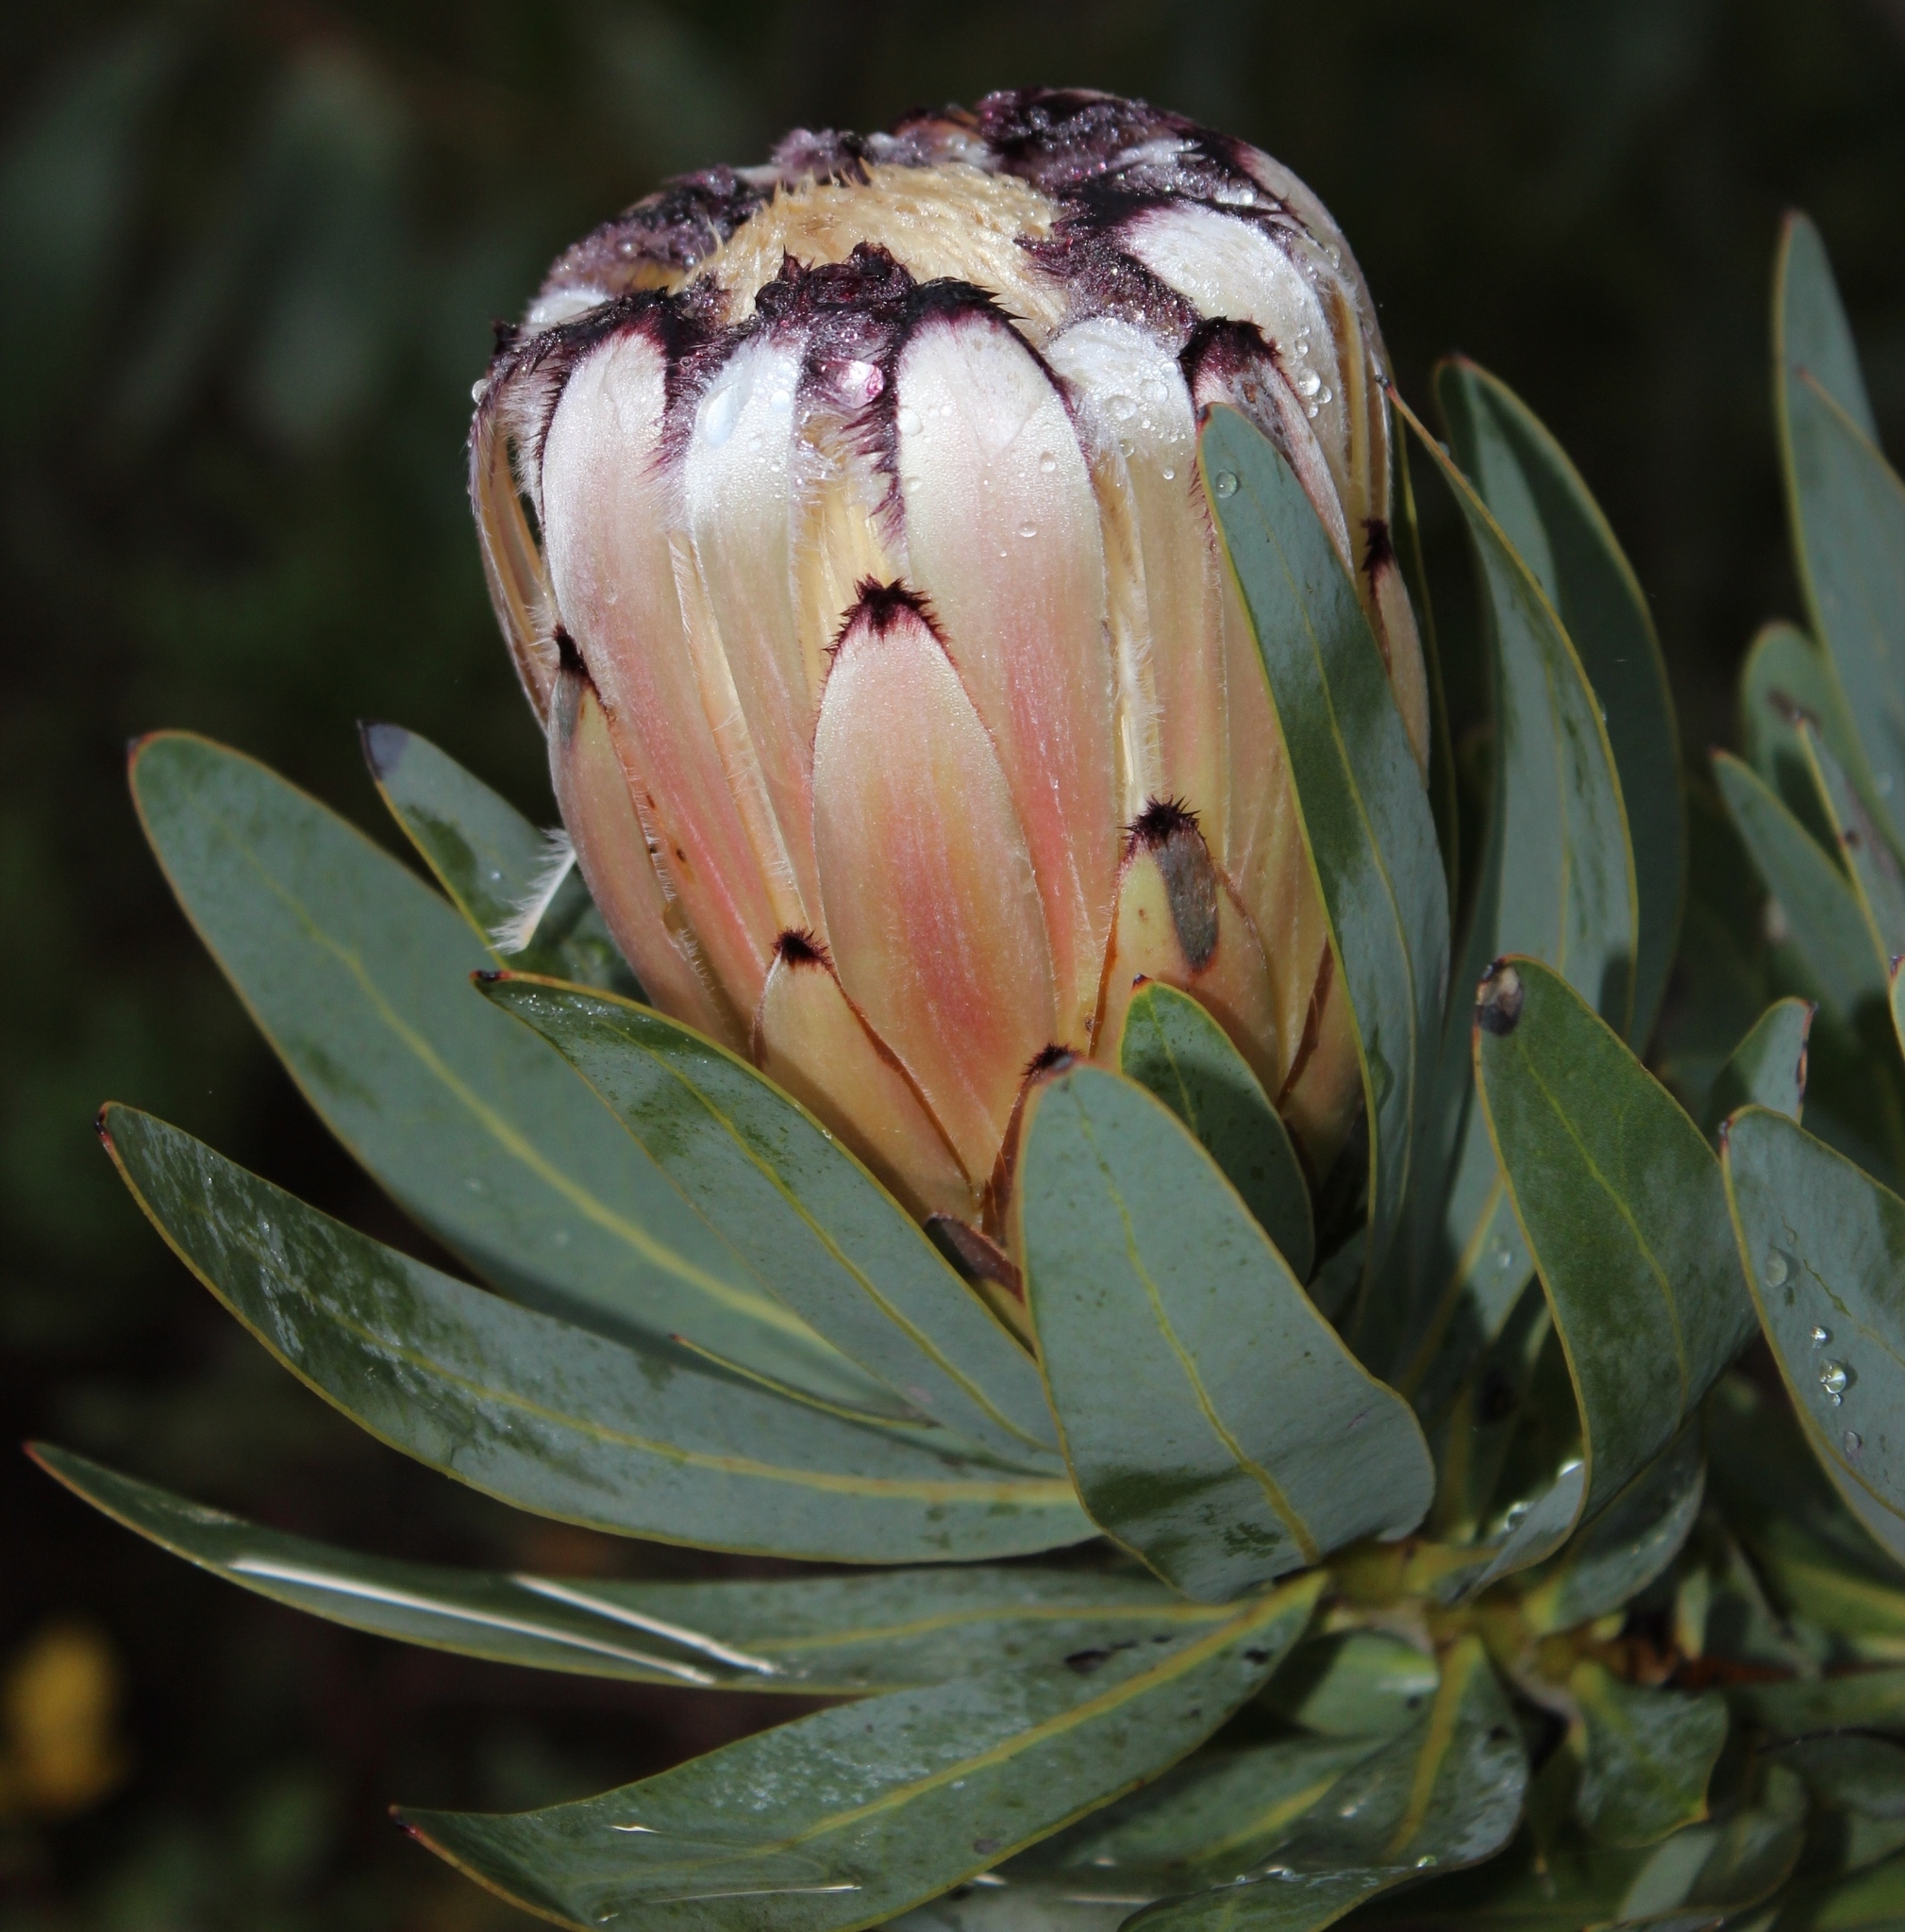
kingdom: Plantae
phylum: Tracheophyta
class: Magnoliopsida
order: Proteales
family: Proteaceae
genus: Protea
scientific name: Protea laurifolia
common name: Grey-leaf sugarbsh
